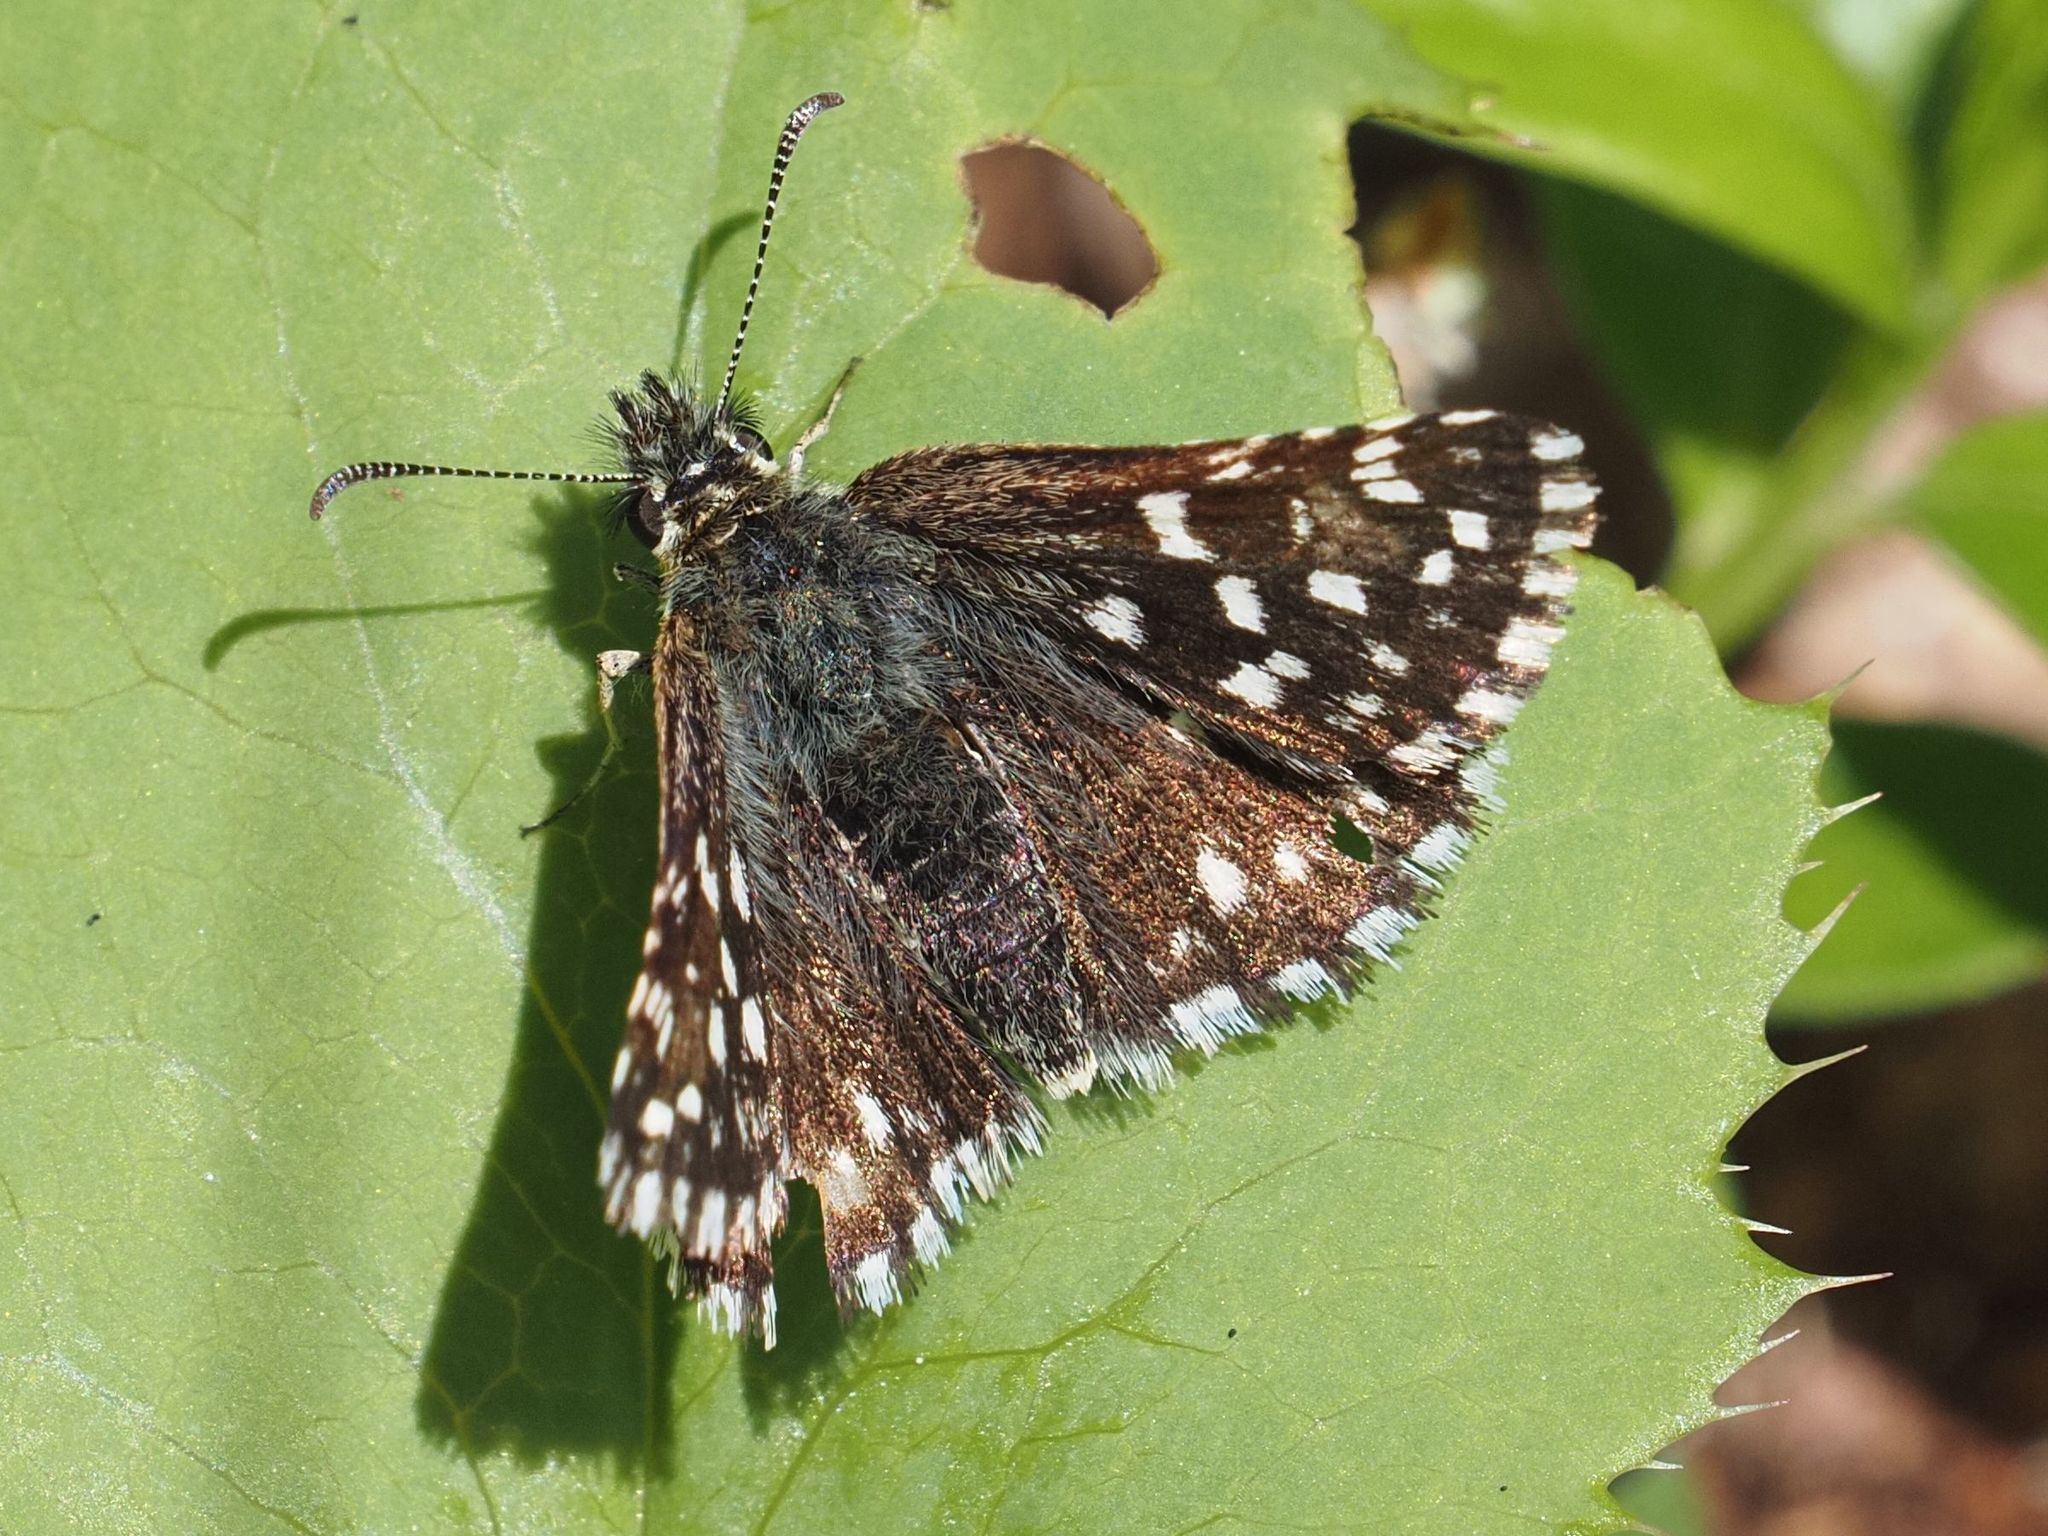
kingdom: Animalia
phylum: Arthropoda
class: Insecta
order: Lepidoptera
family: Hesperiidae
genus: Pyrgus
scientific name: Pyrgus malvae
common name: Grizzled skipper
